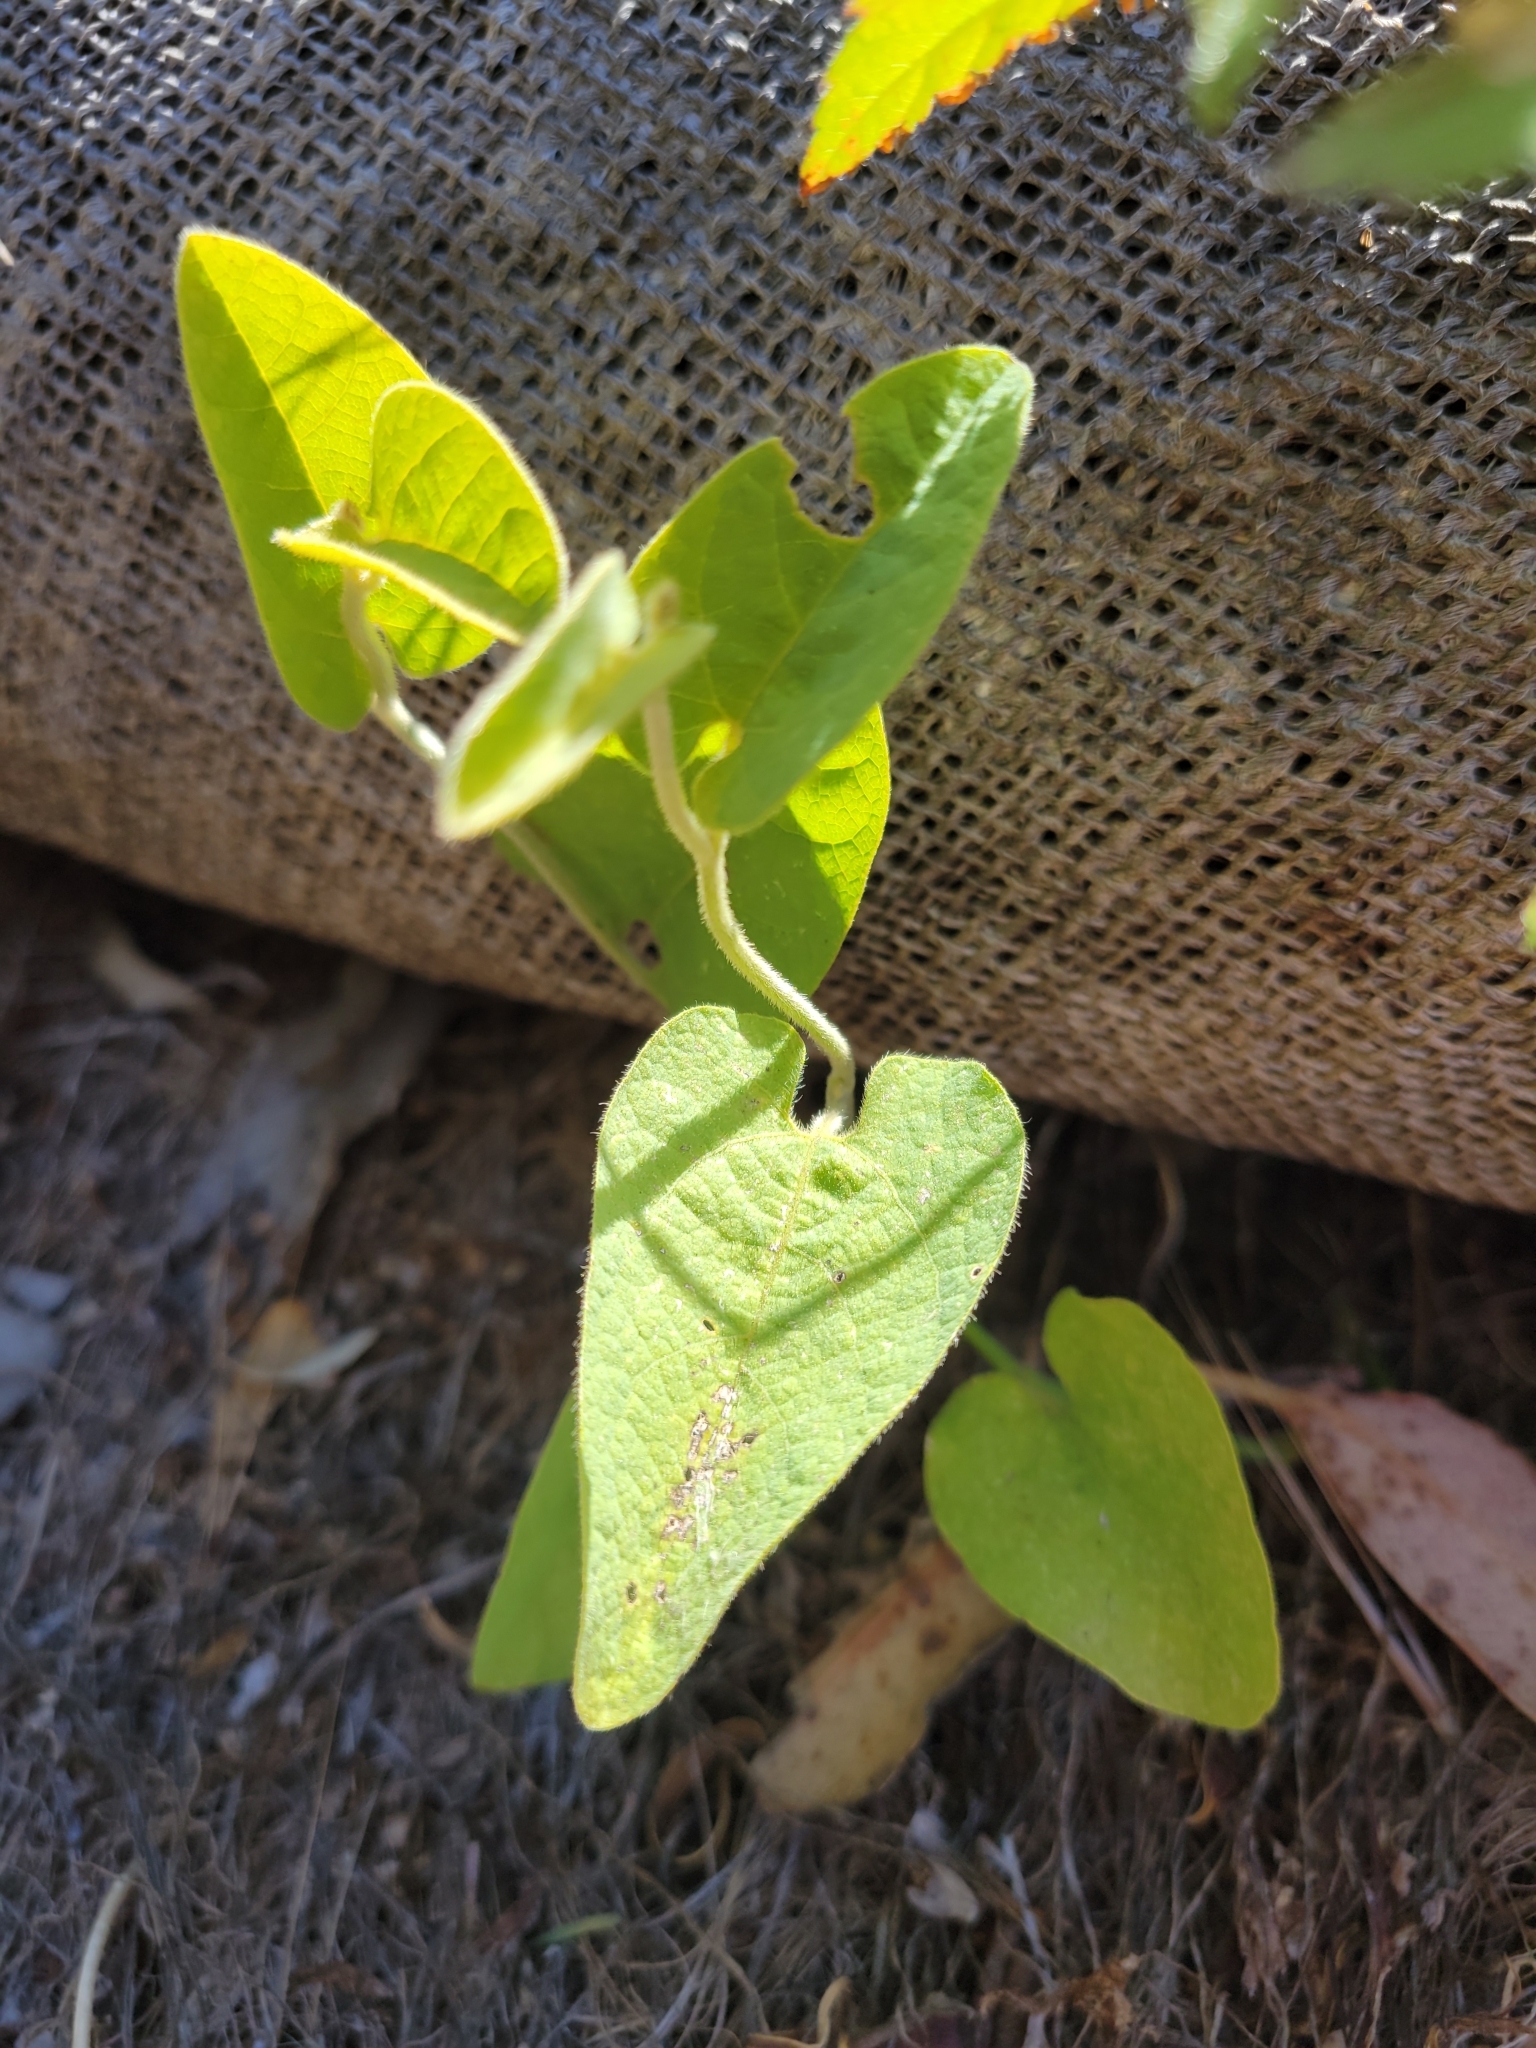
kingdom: Plantae
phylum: Tracheophyta
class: Magnoliopsida
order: Piperales
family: Aristolochiaceae
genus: Isotrema
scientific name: Isotrema californicum
